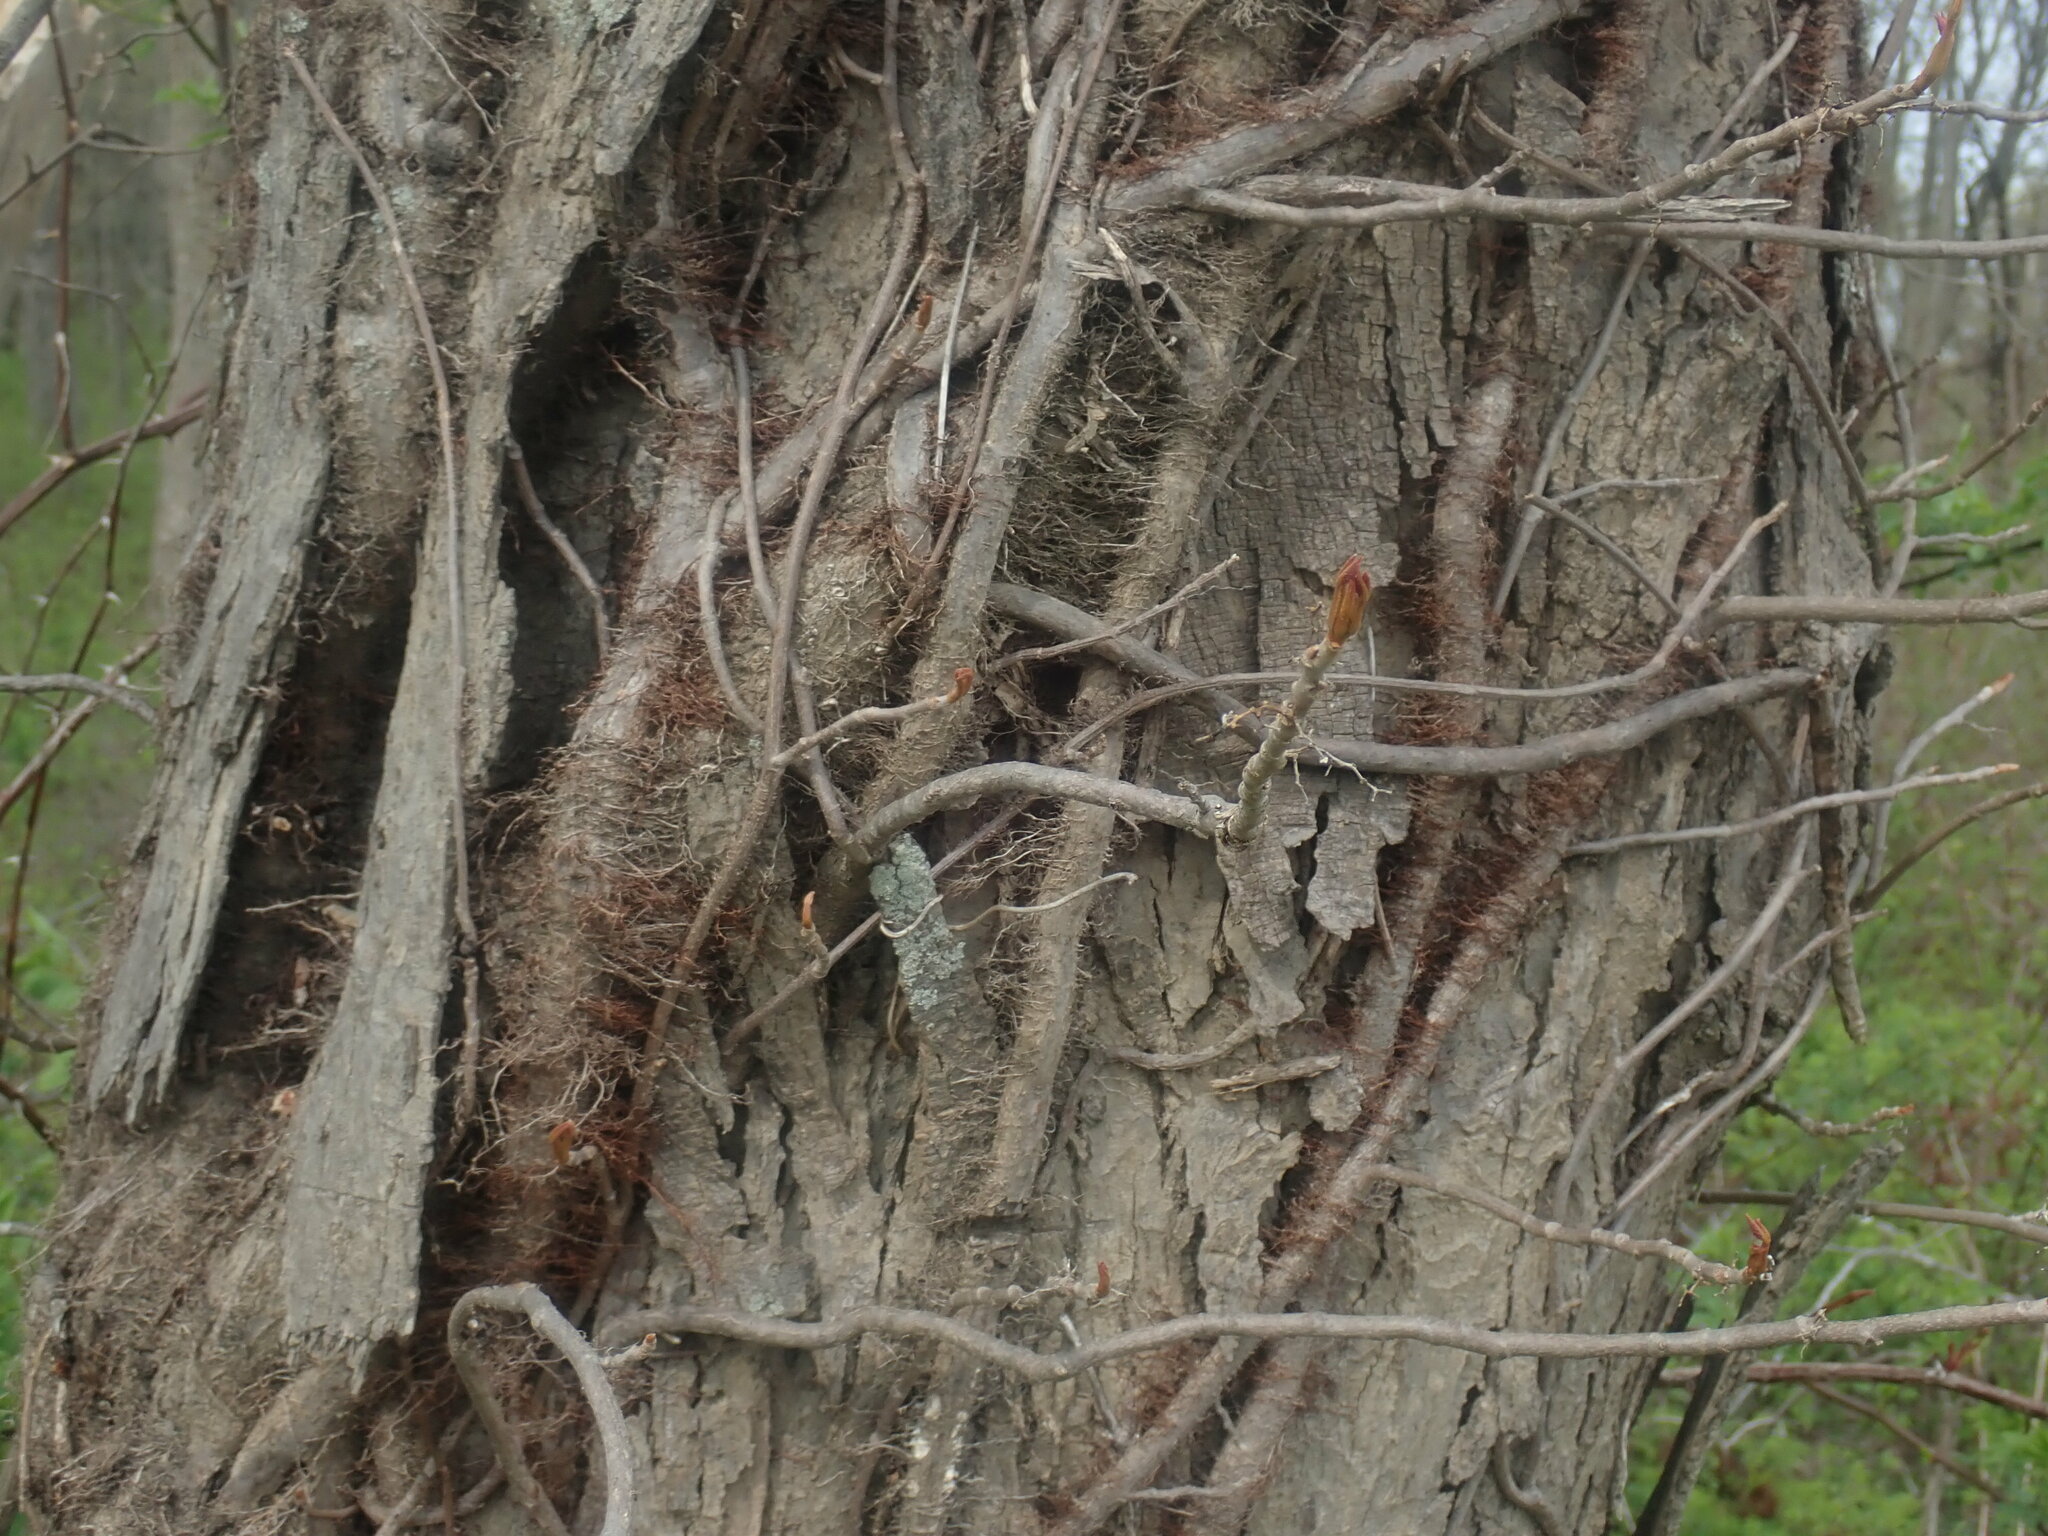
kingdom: Plantae
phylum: Tracheophyta
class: Magnoliopsida
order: Sapindales
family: Anacardiaceae
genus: Toxicodendron
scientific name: Toxicodendron radicans
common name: Poison ivy
